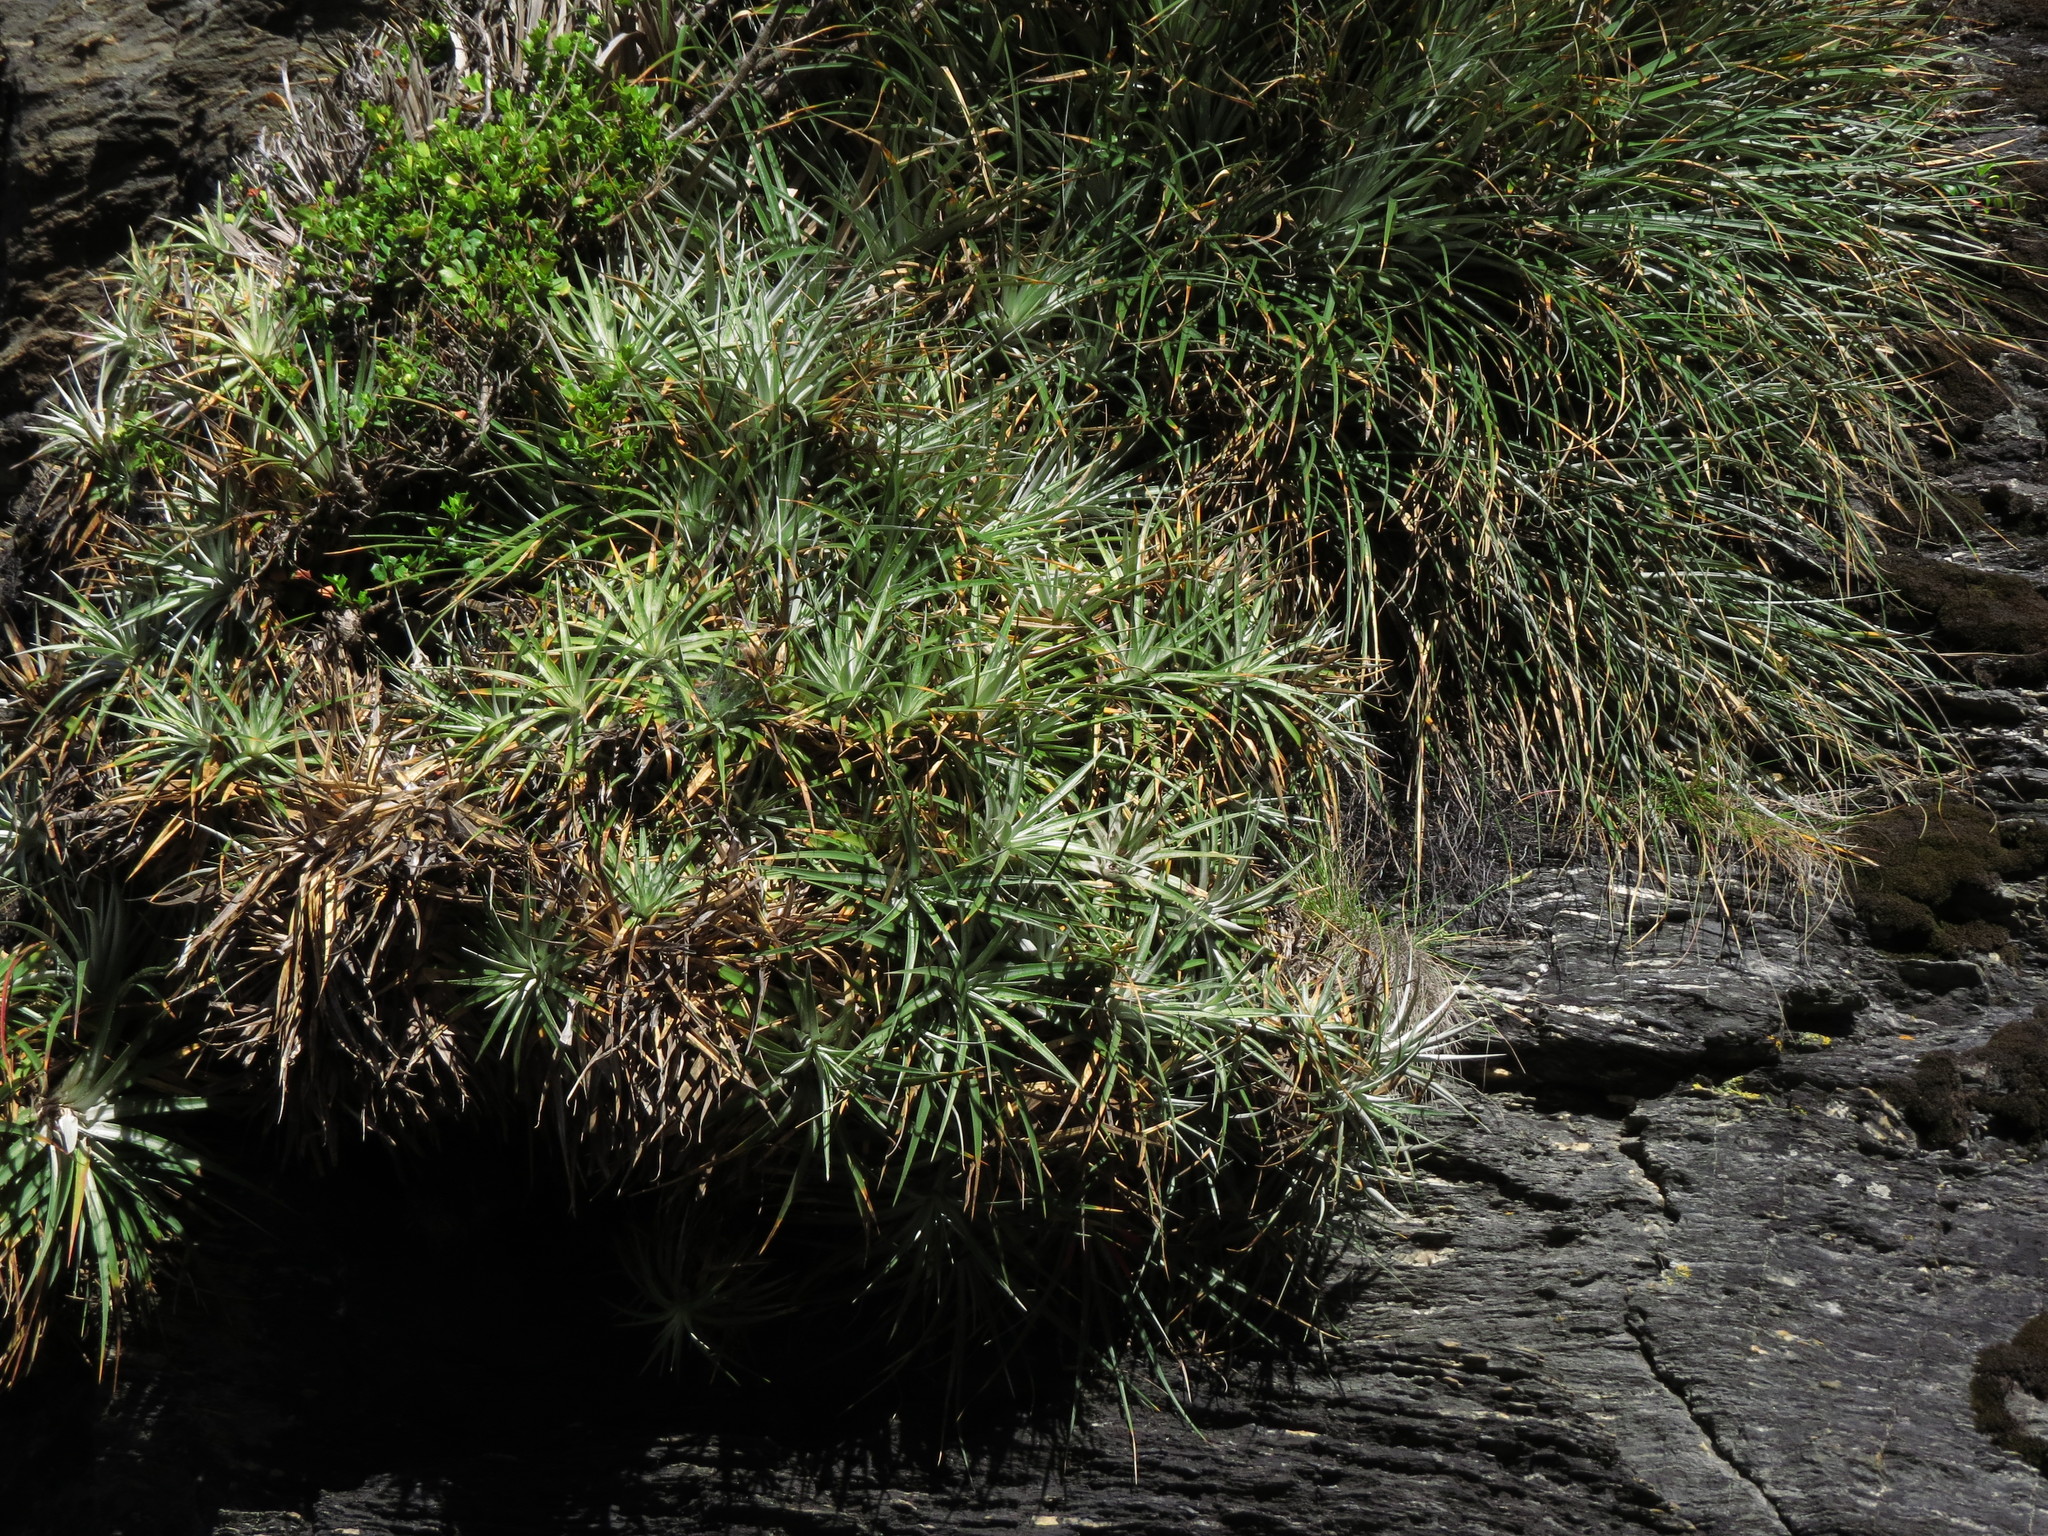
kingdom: Plantae
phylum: Tracheophyta
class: Liliopsida
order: Poales
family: Bromeliaceae
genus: Ochagavia
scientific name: Ochagavia carnea
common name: Tresco rhodostachys
